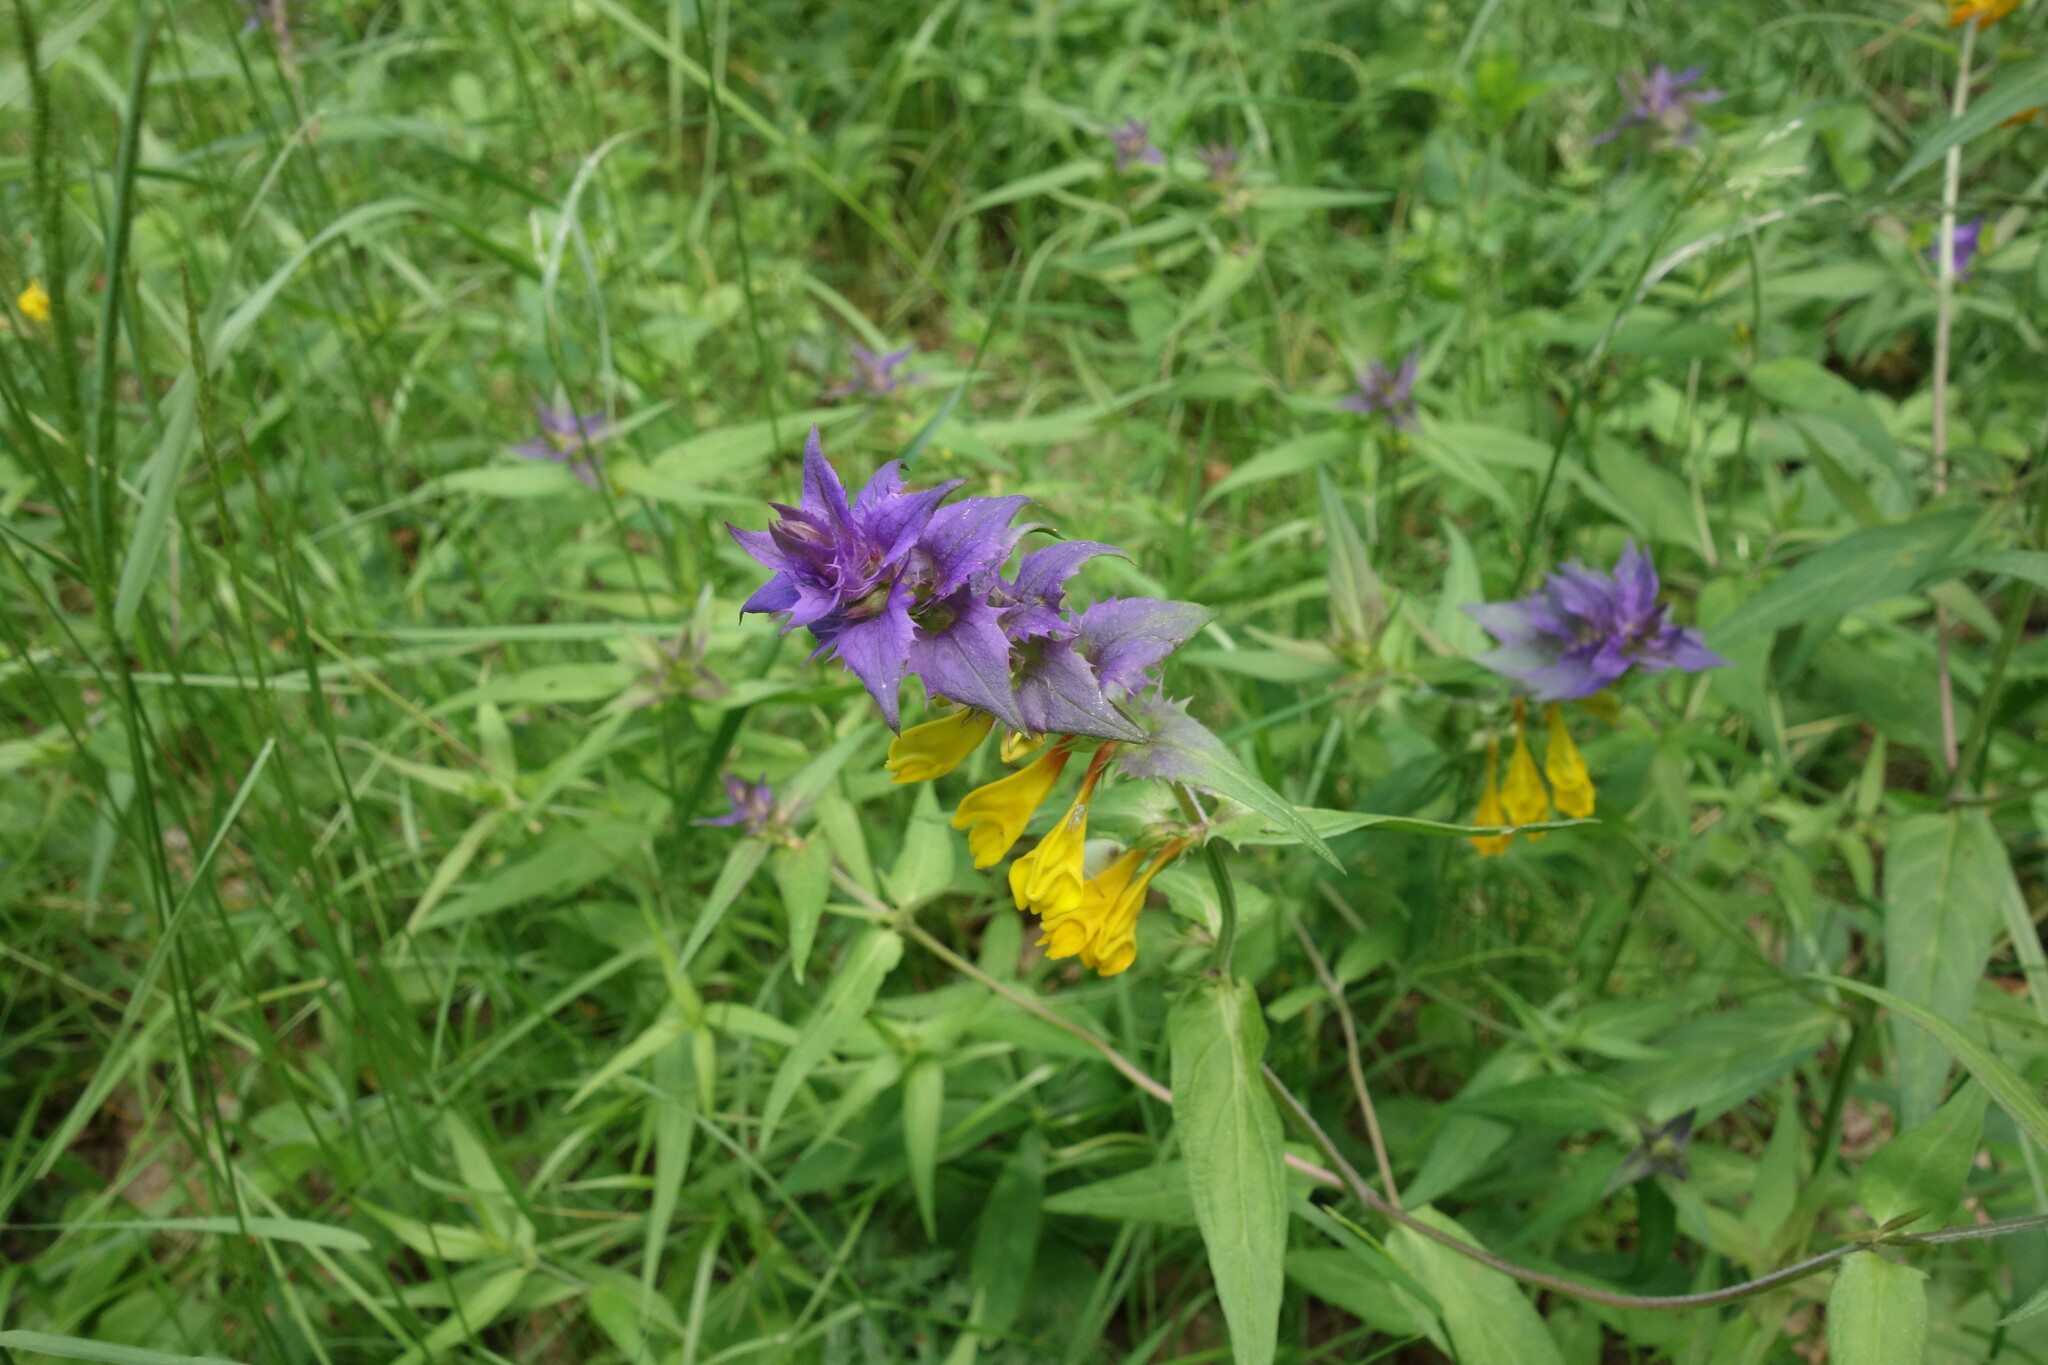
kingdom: Plantae
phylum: Tracheophyta
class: Magnoliopsida
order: Lamiales
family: Orobanchaceae
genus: Melampyrum
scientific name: Melampyrum nemorosum
